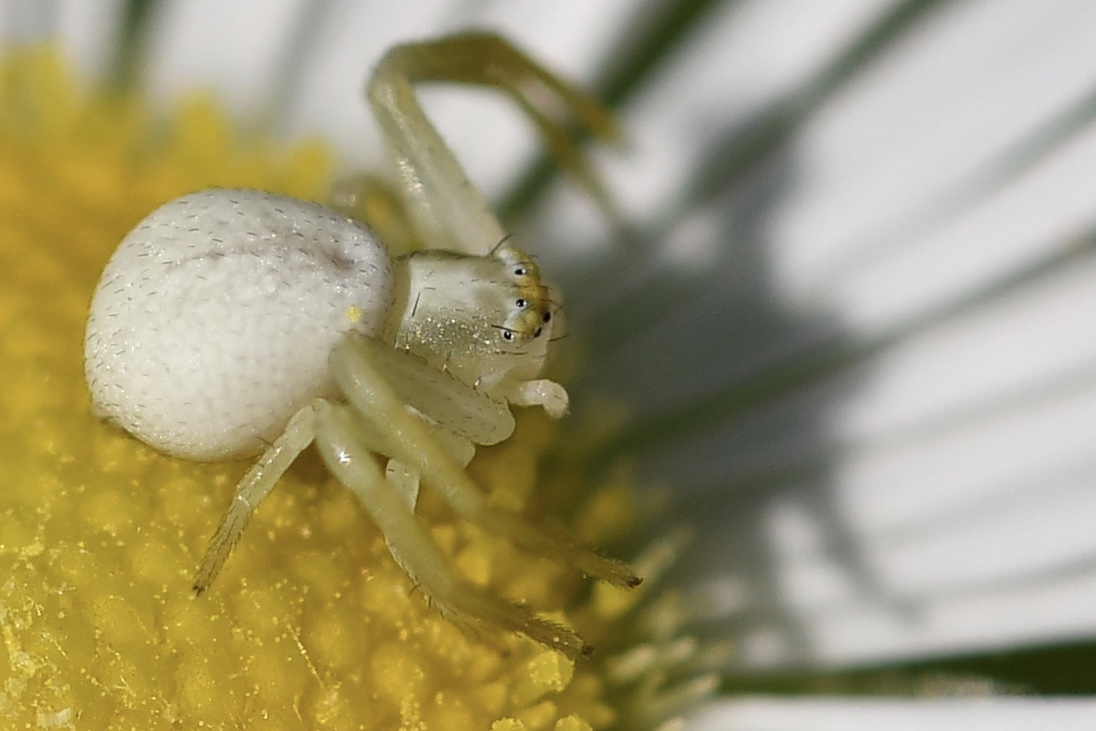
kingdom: Animalia
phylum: Arthropoda
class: Arachnida
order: Araneae
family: Thomisidae
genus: Misumena
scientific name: Misumena vatia
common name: Goldenrod crab spider
